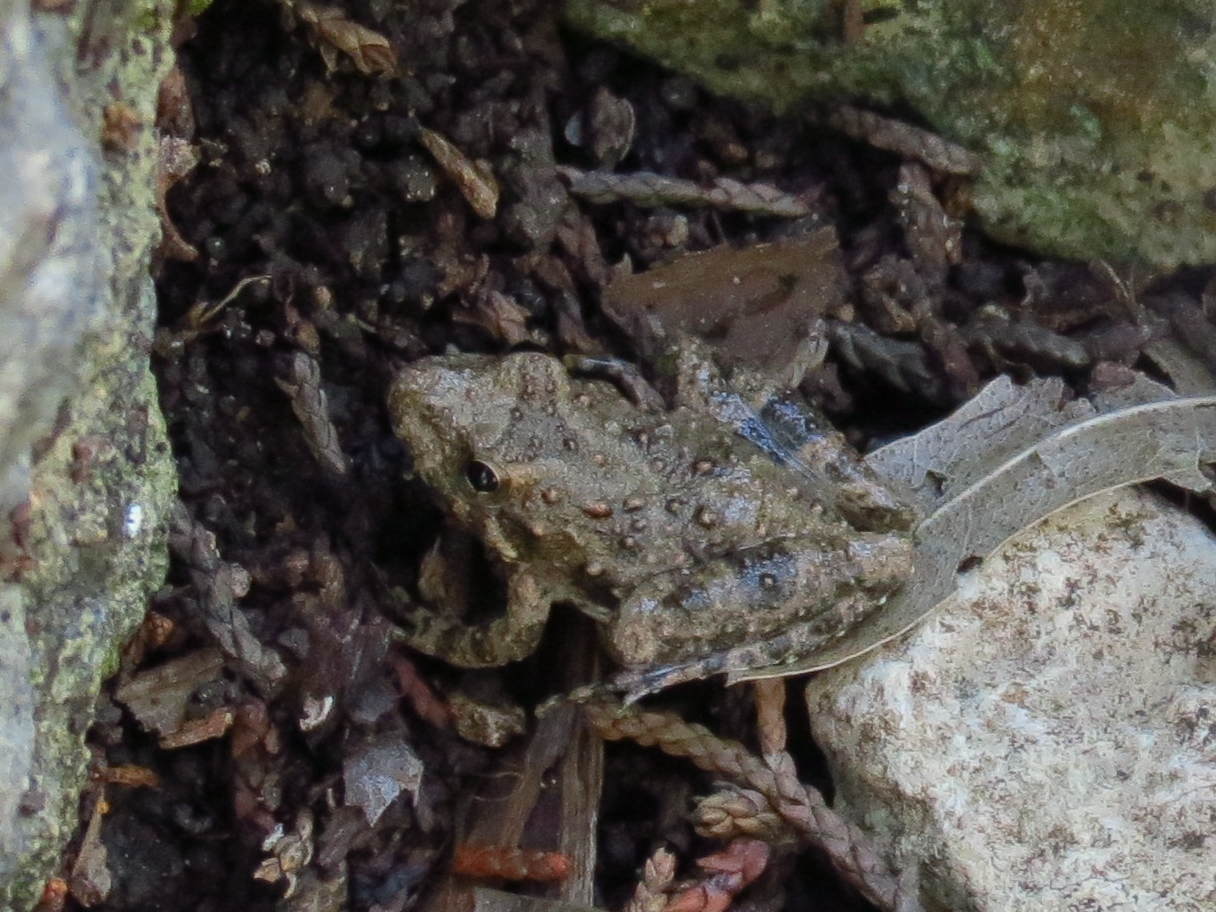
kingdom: Animalia
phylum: Chordata
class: Amphibia
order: Anura
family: Hylidae
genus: Acris
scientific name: Acris blanchardi
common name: Blanchard's cricket frog
